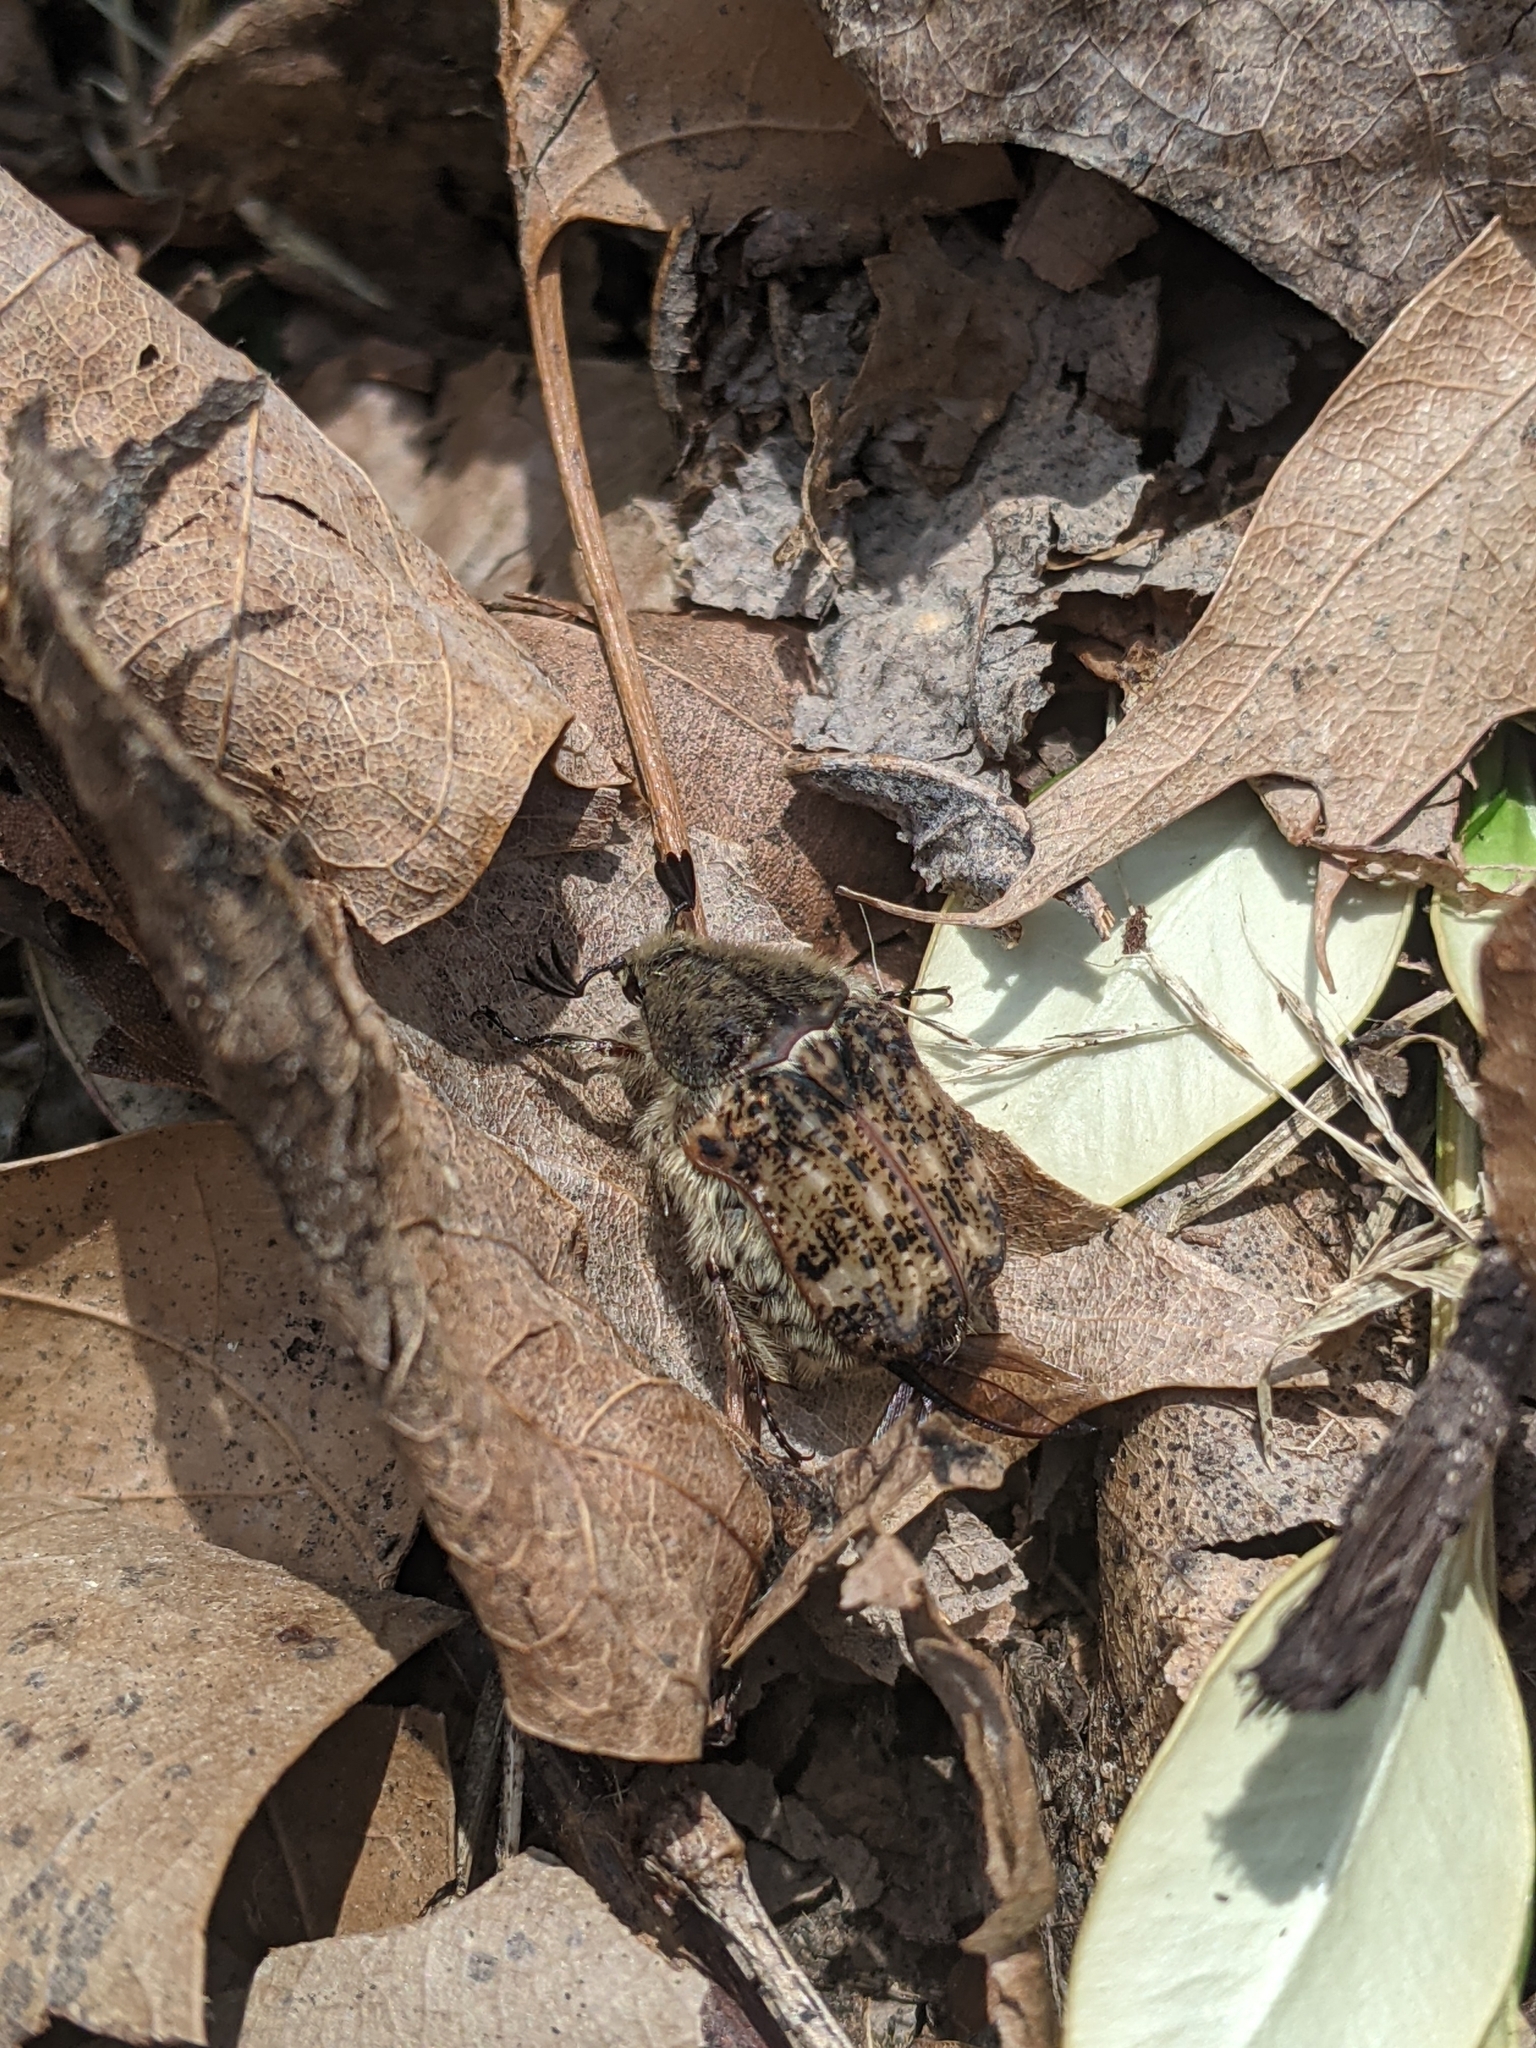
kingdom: Animalia
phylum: Arthropoda
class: Insecta
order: Coleoptera
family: Scarabaeidae
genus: Euphoria
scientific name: Euphoria inda
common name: Bumble flower beetle
